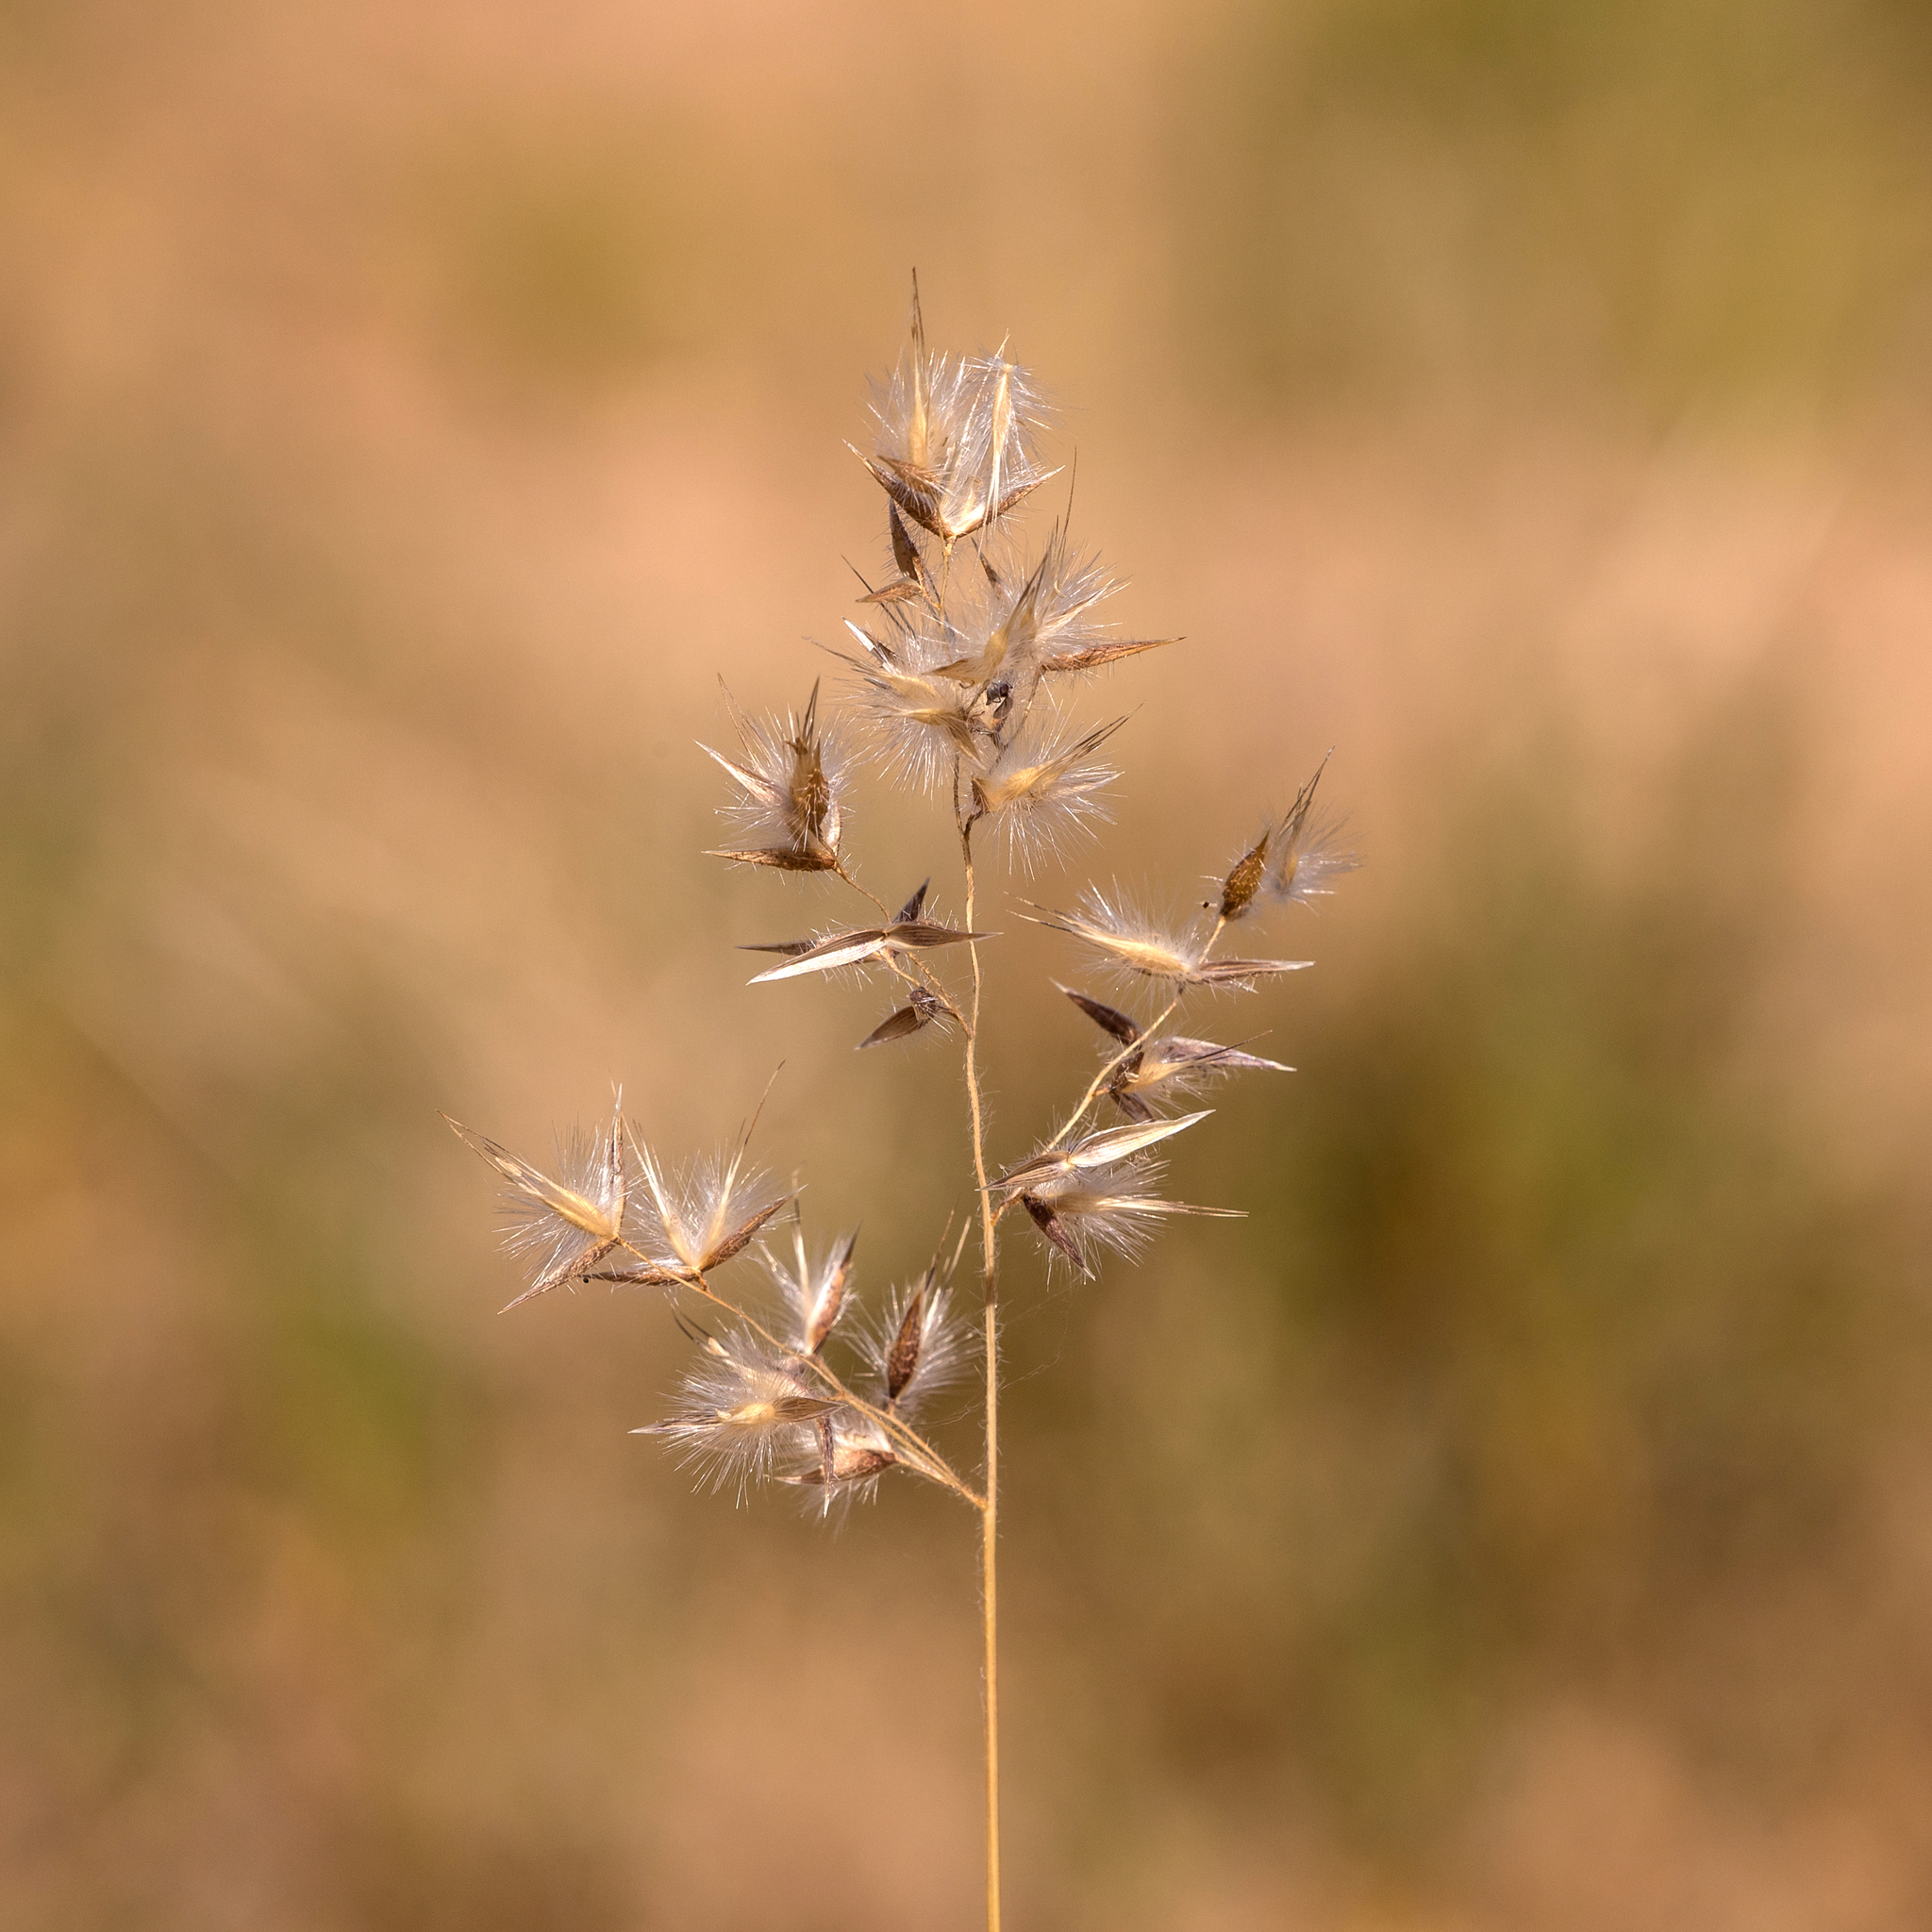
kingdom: Plantae
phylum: Tracheophyta
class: Liliopsida
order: Poales
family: Poaceae
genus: Eriachne
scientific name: Eriachne aristidea
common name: Three-awn wanderrie grass
